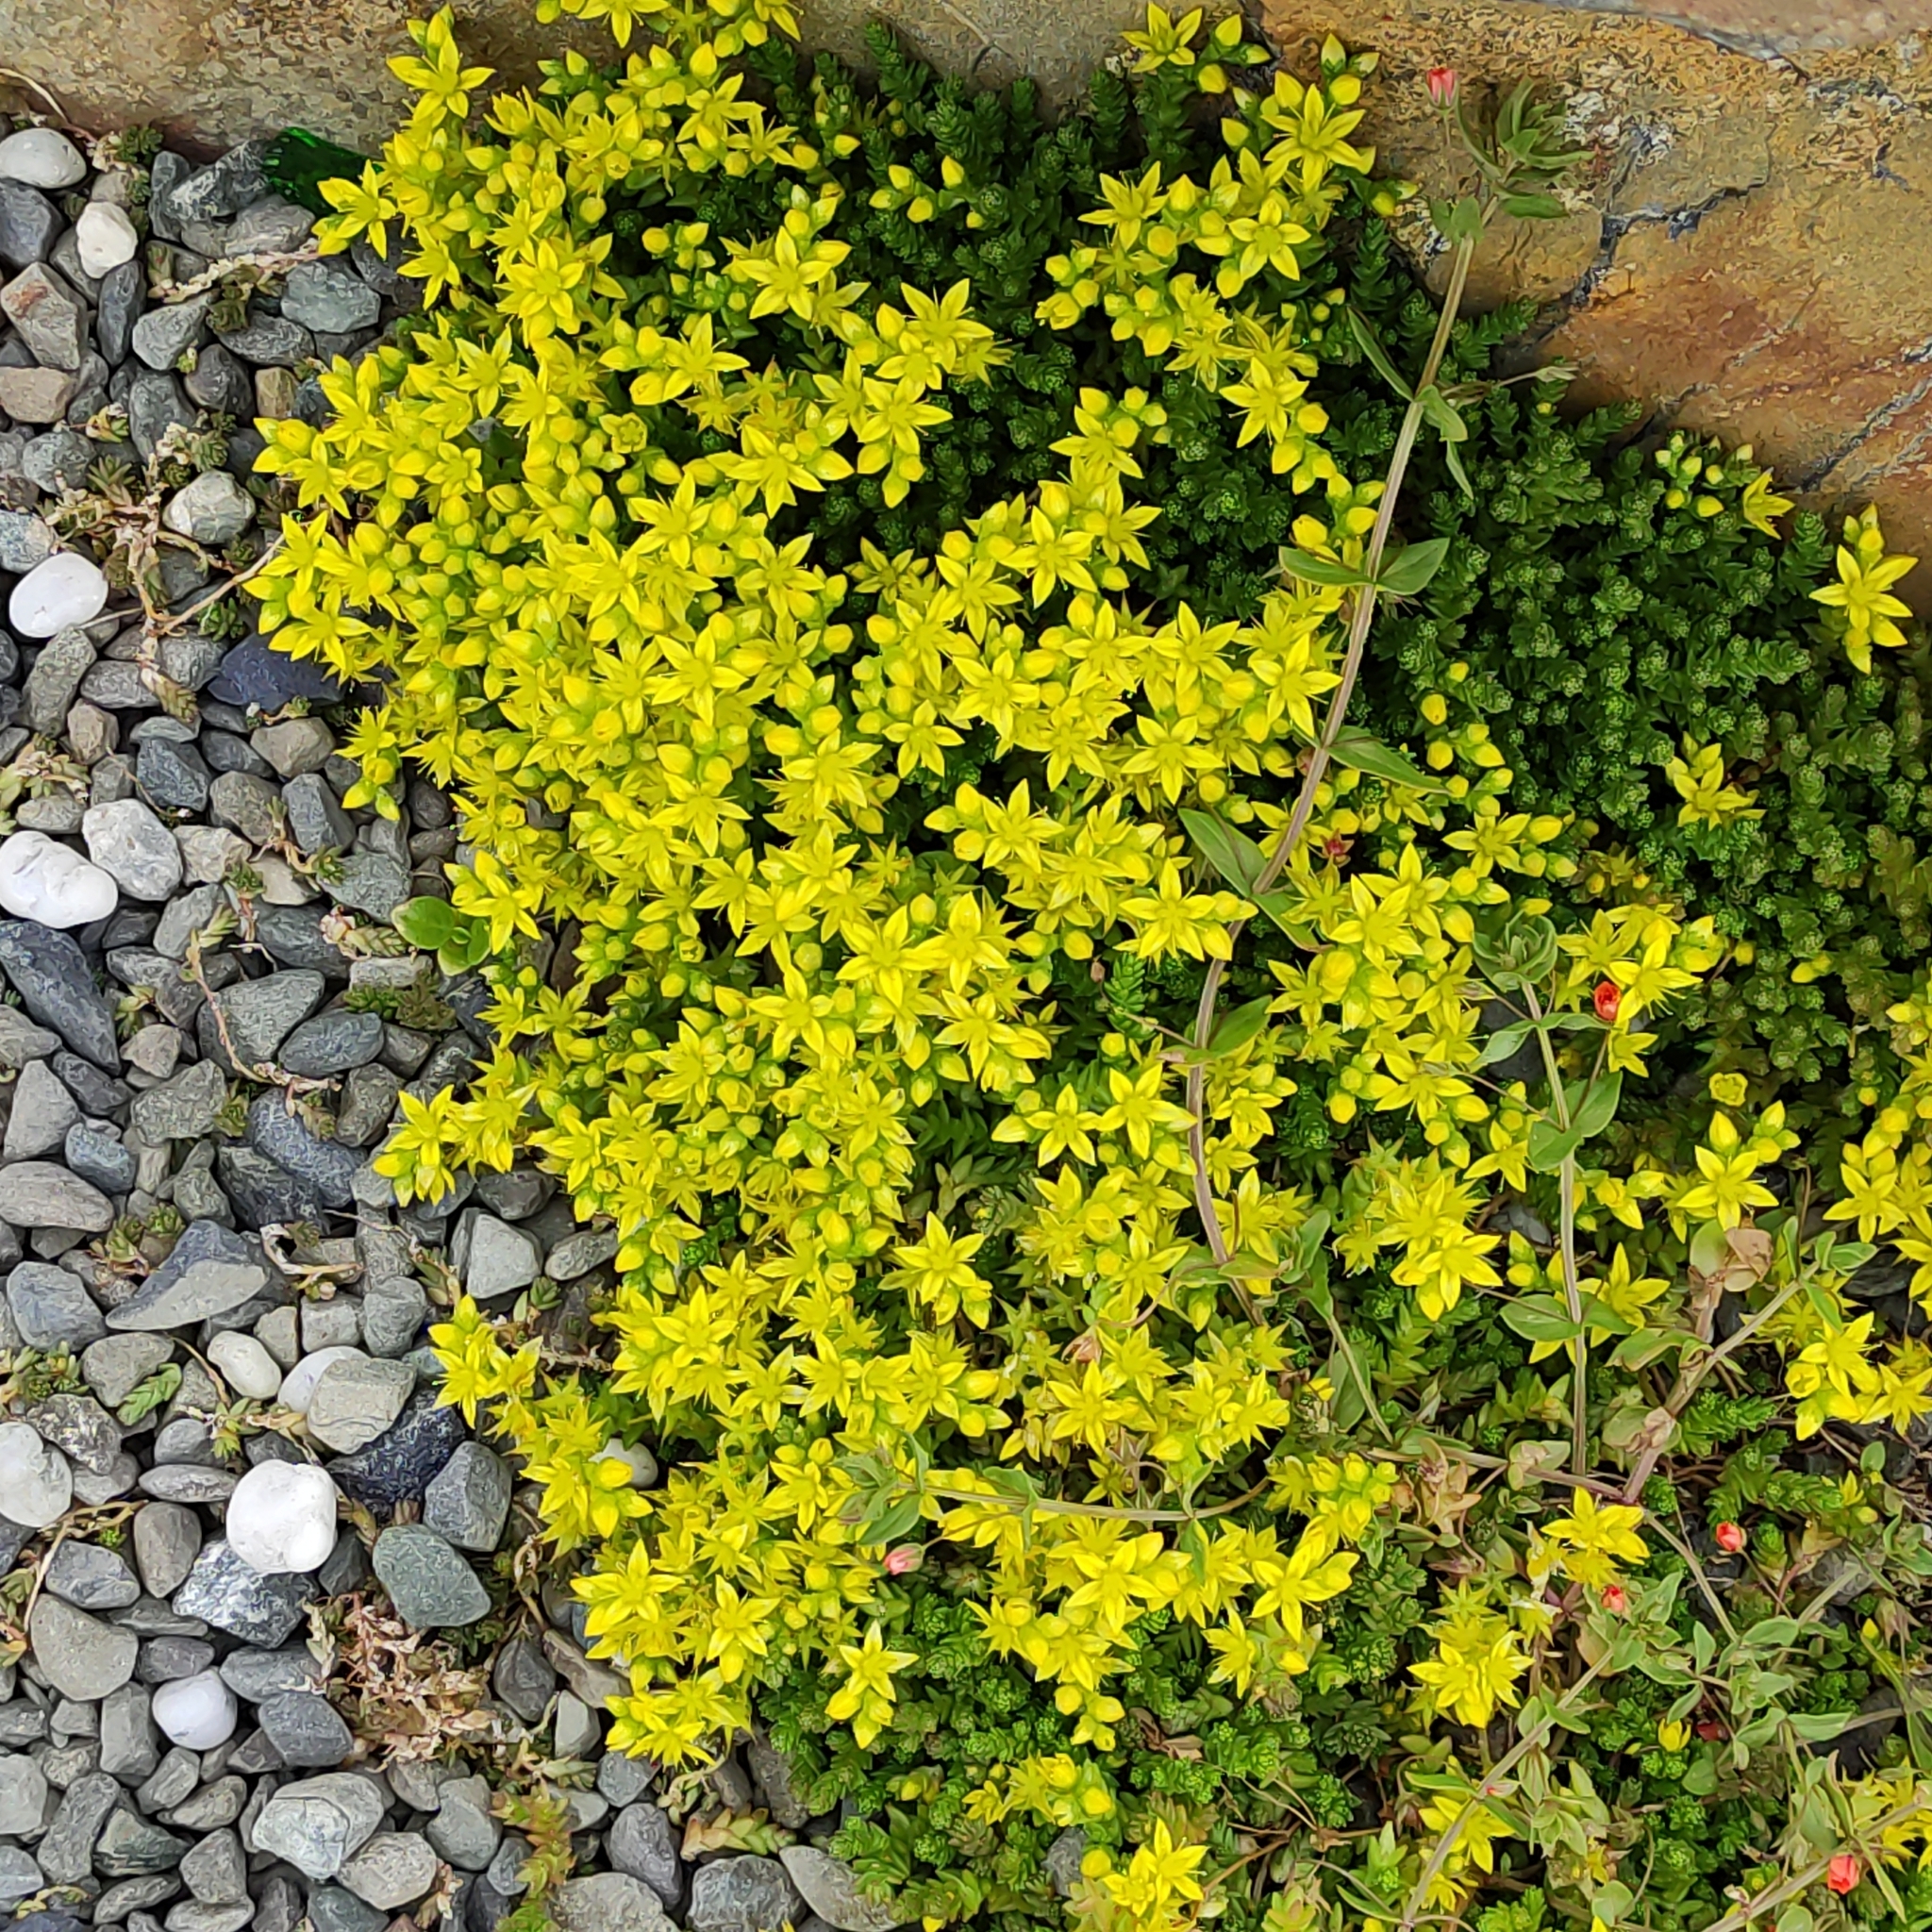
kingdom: Plantae
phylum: Tracheophyta
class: Magnoliopsida
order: Saxifragales
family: Crassulaceae
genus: Sedum
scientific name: Sedum acre
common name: Biting stonecrop
